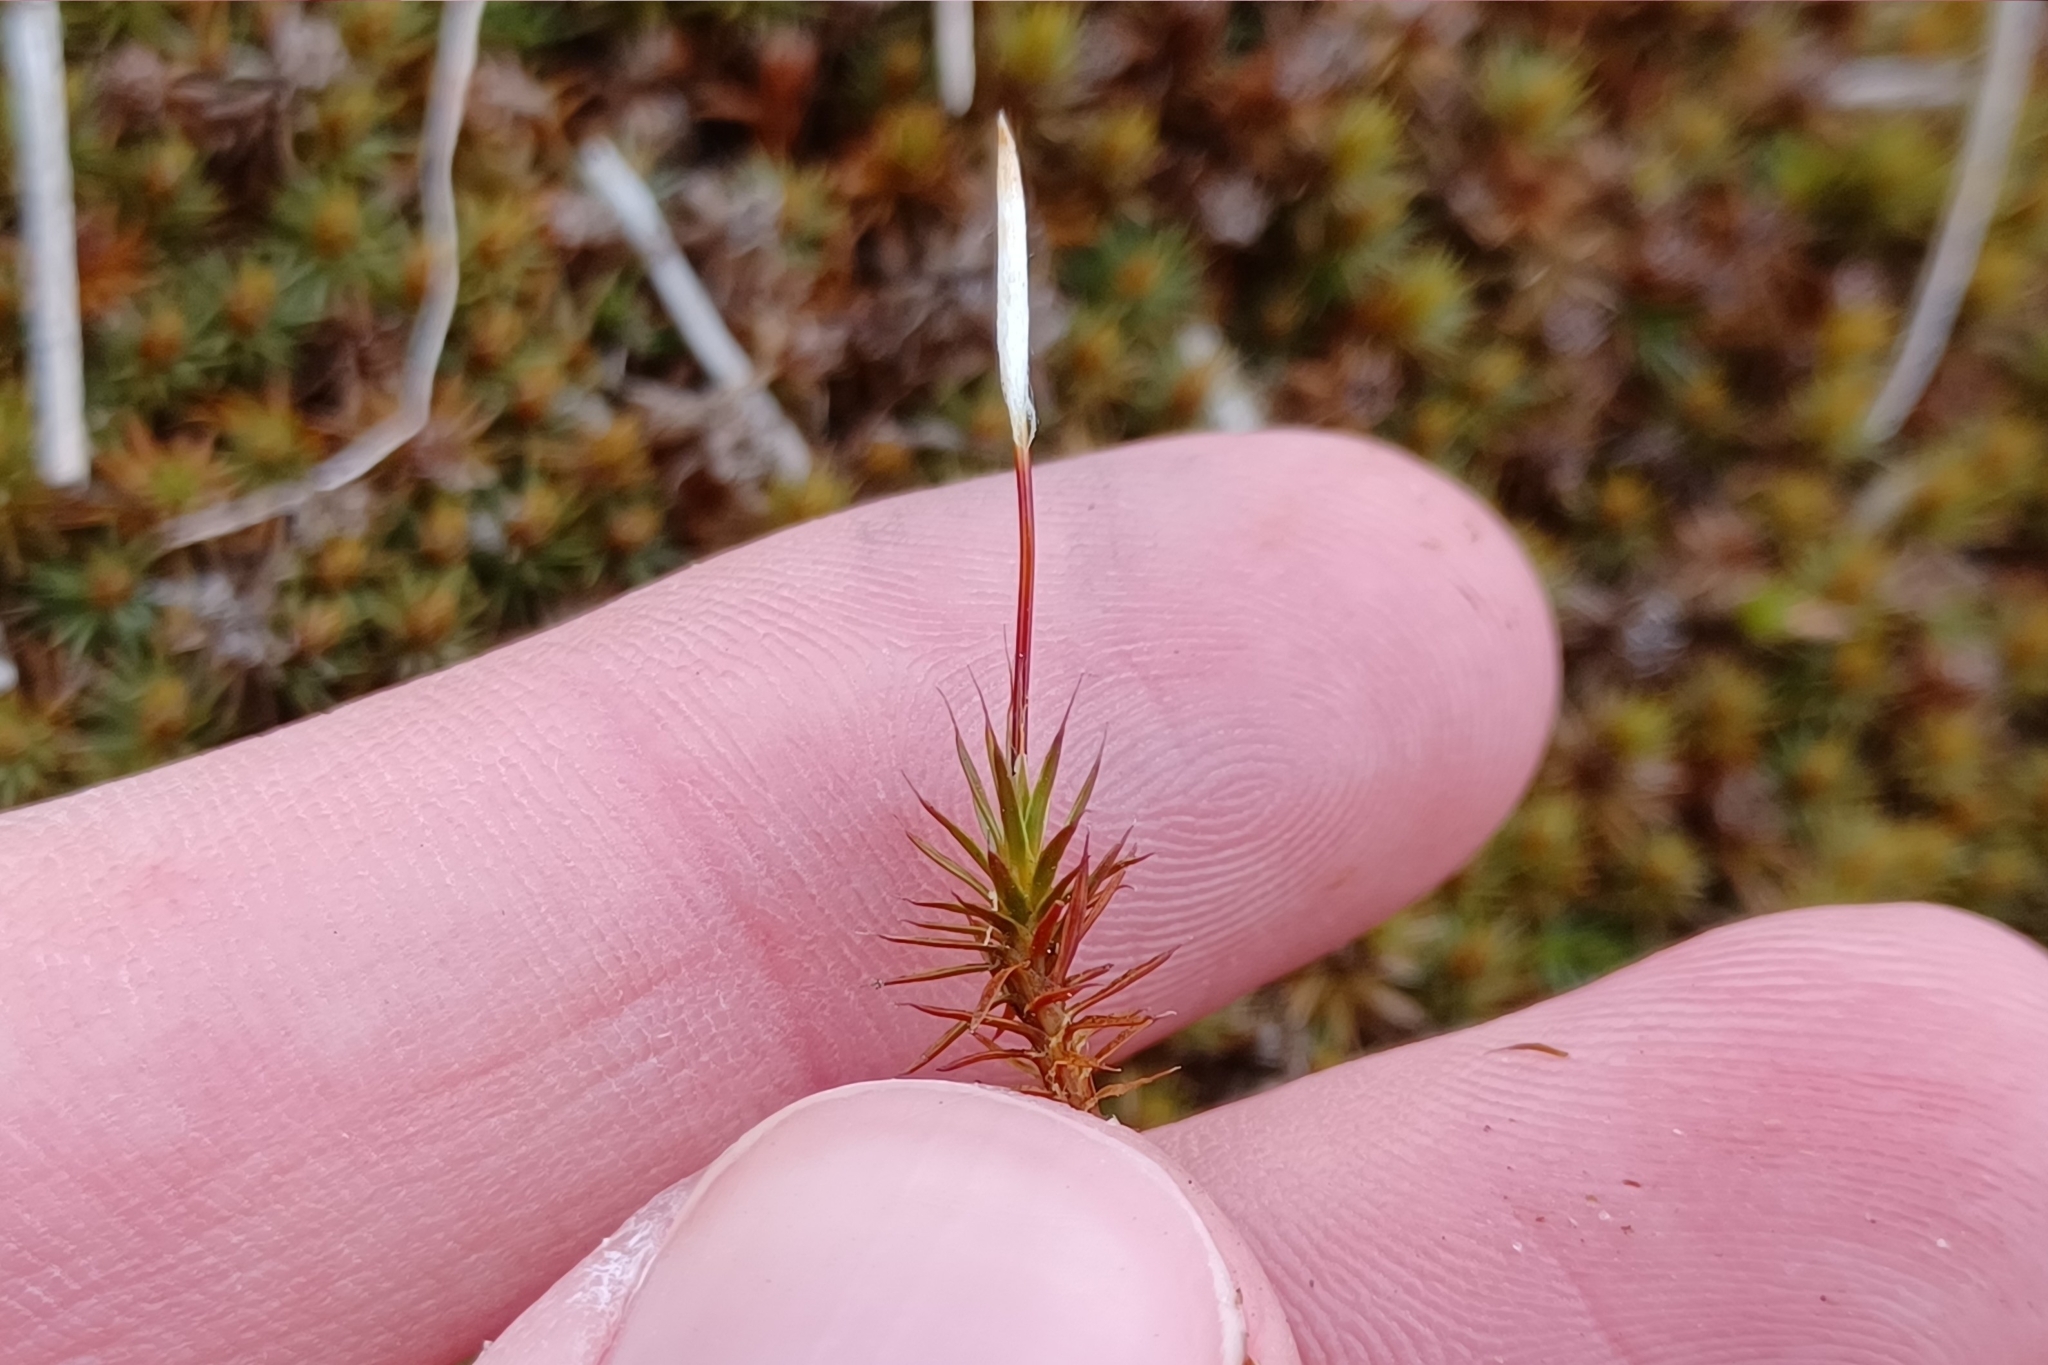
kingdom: Plantae
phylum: Bryophyta
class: Polytrichopsida
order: Polytrichales
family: Polytrichaceae
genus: Polytrichum
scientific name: Polytrichum juniperinum
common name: Juniper haircap moss
